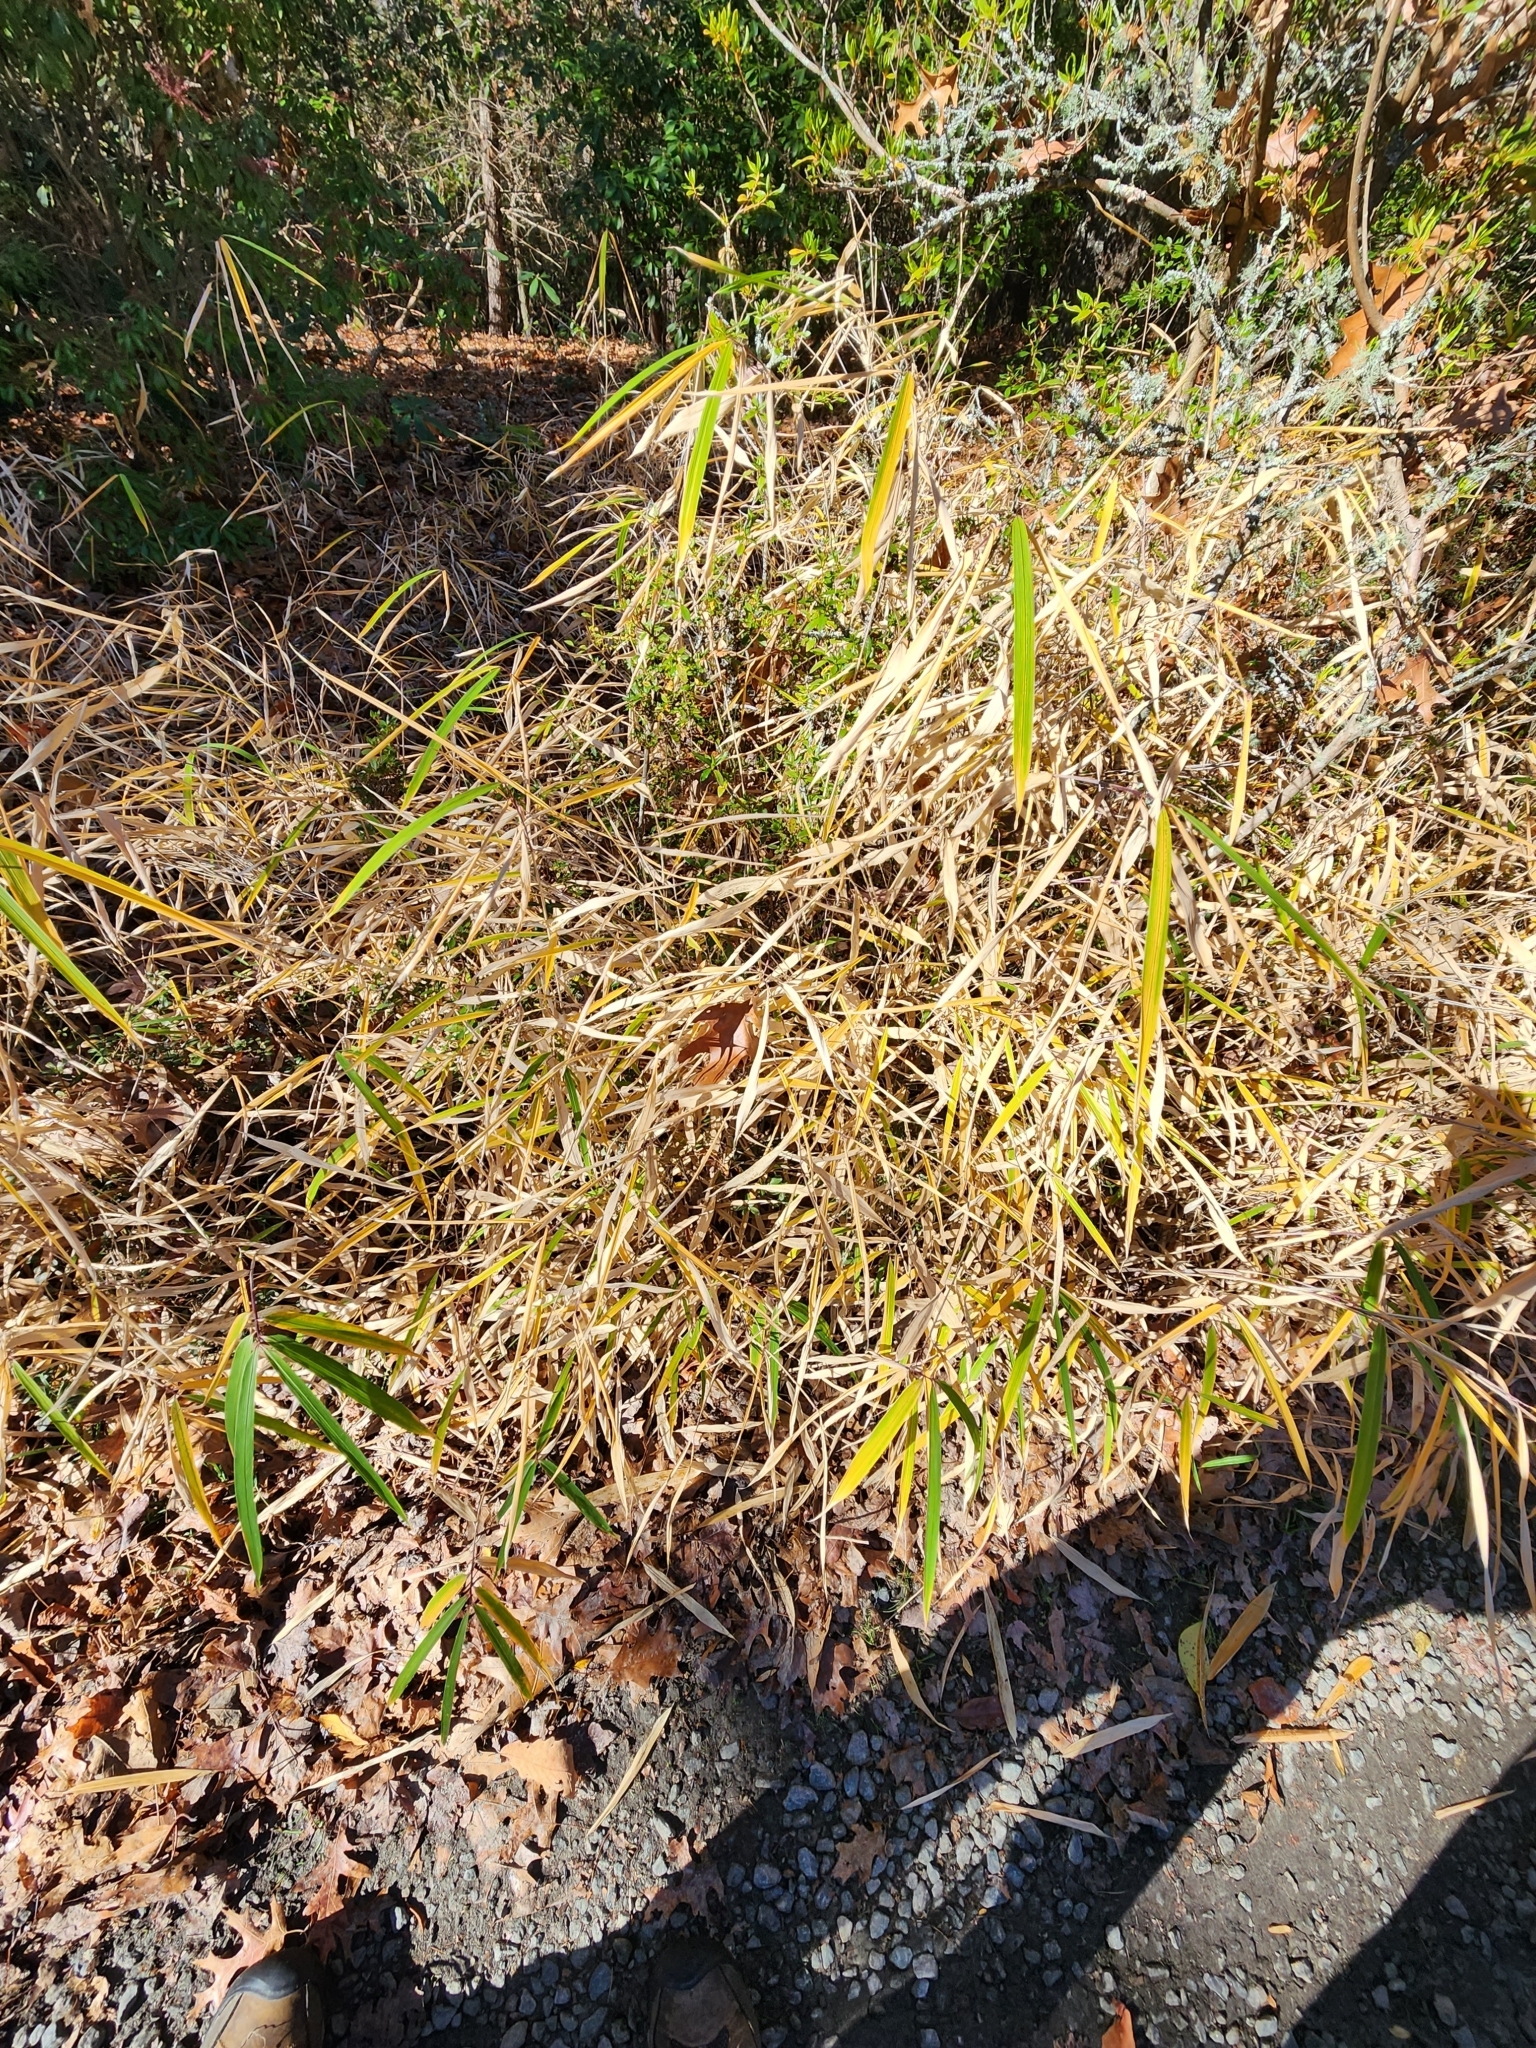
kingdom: Plantae
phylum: Tracheophyta
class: Liliopsida
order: Poales
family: Poaceae
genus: Arundinaria
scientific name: Arundinaria appalachiana
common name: Hill cane
